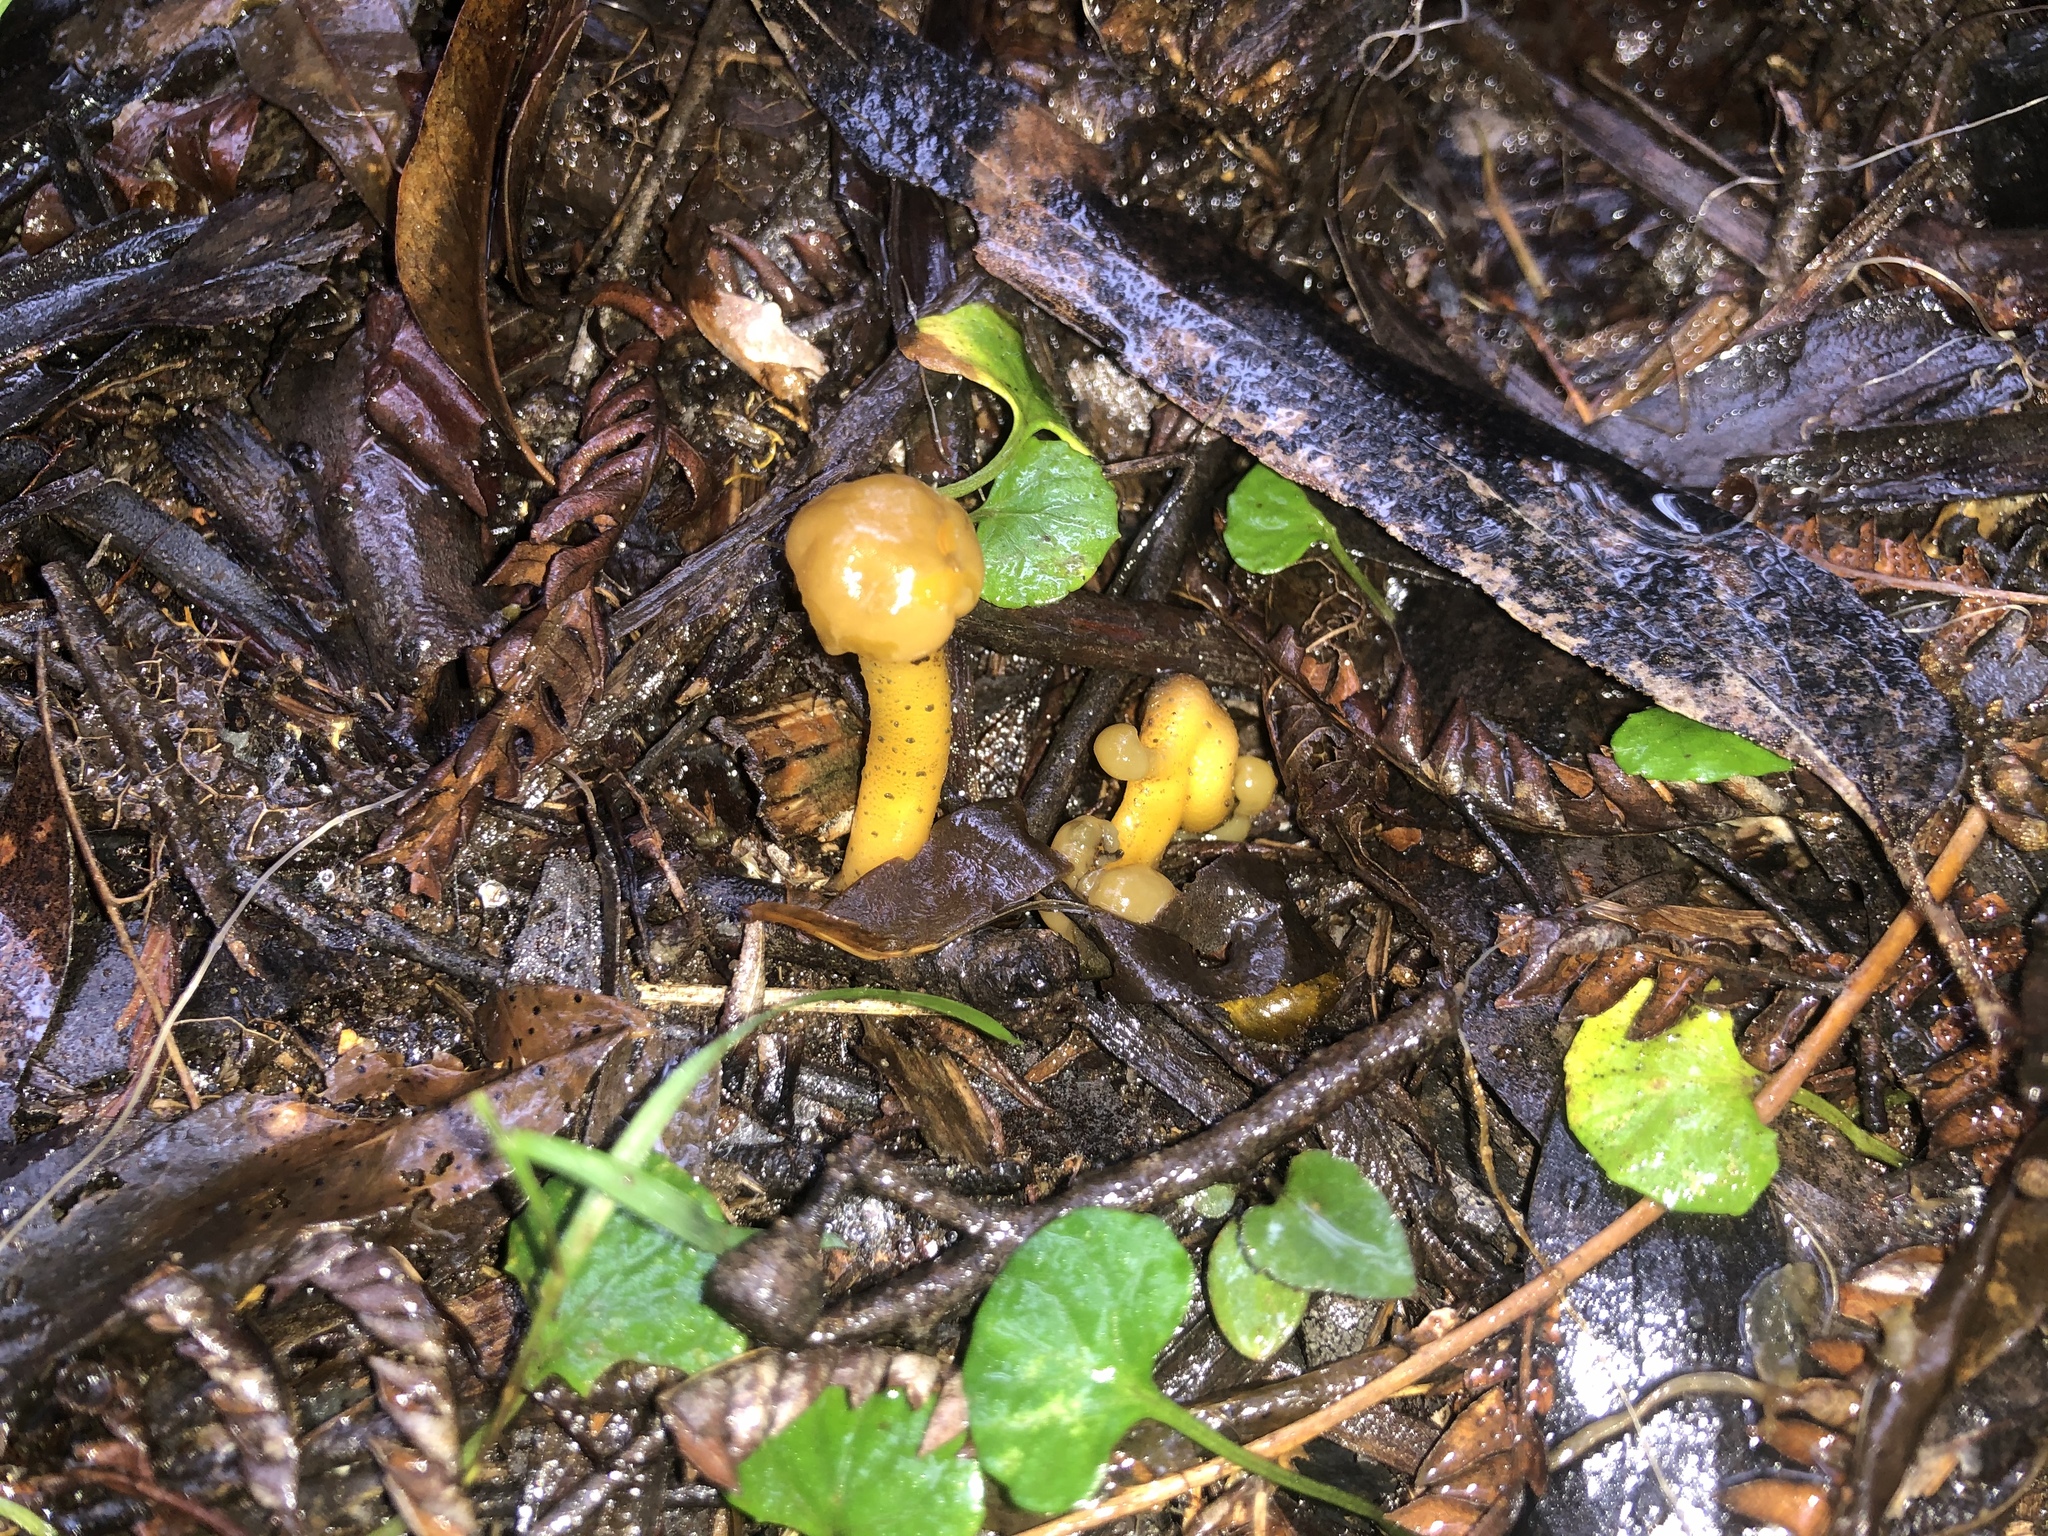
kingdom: Fungi
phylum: Ascomycota
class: Leotiomycetes
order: Leotiales
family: Leotiaceae
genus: Leotia
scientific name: Leotia lubrica
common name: Jellybaby
